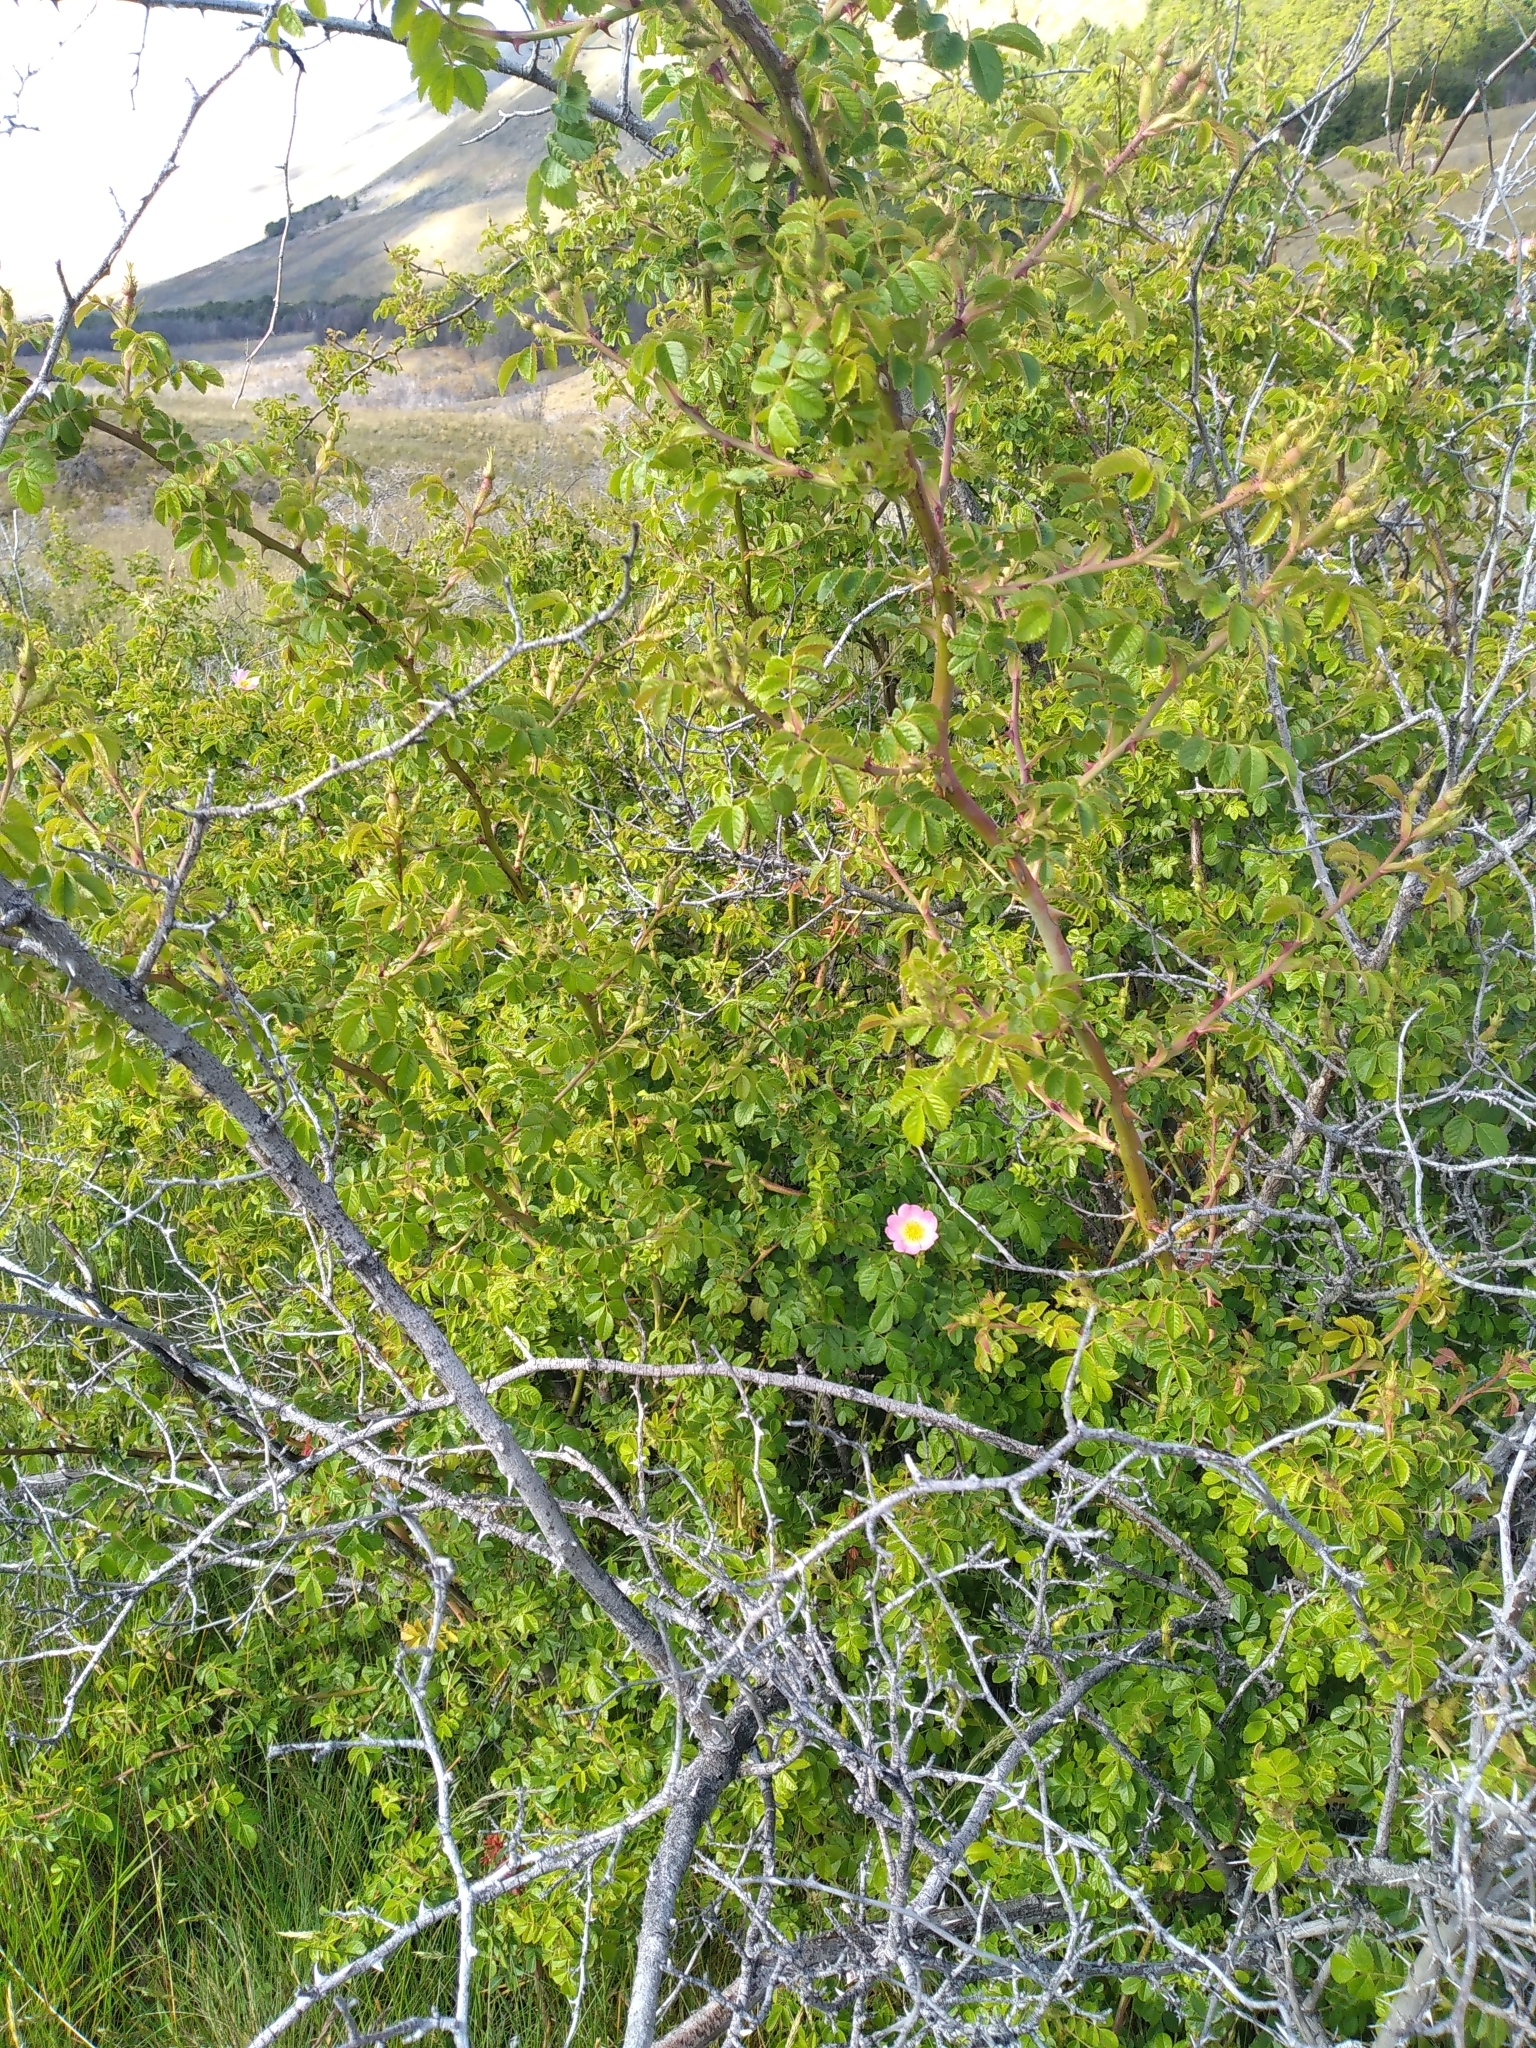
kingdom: Plantae
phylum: Tracheophyta
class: Magnoliopsida
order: Rosales
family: Rosaceae
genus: Rosa
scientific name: Rosa rubiginosa
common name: Sweet-briar
